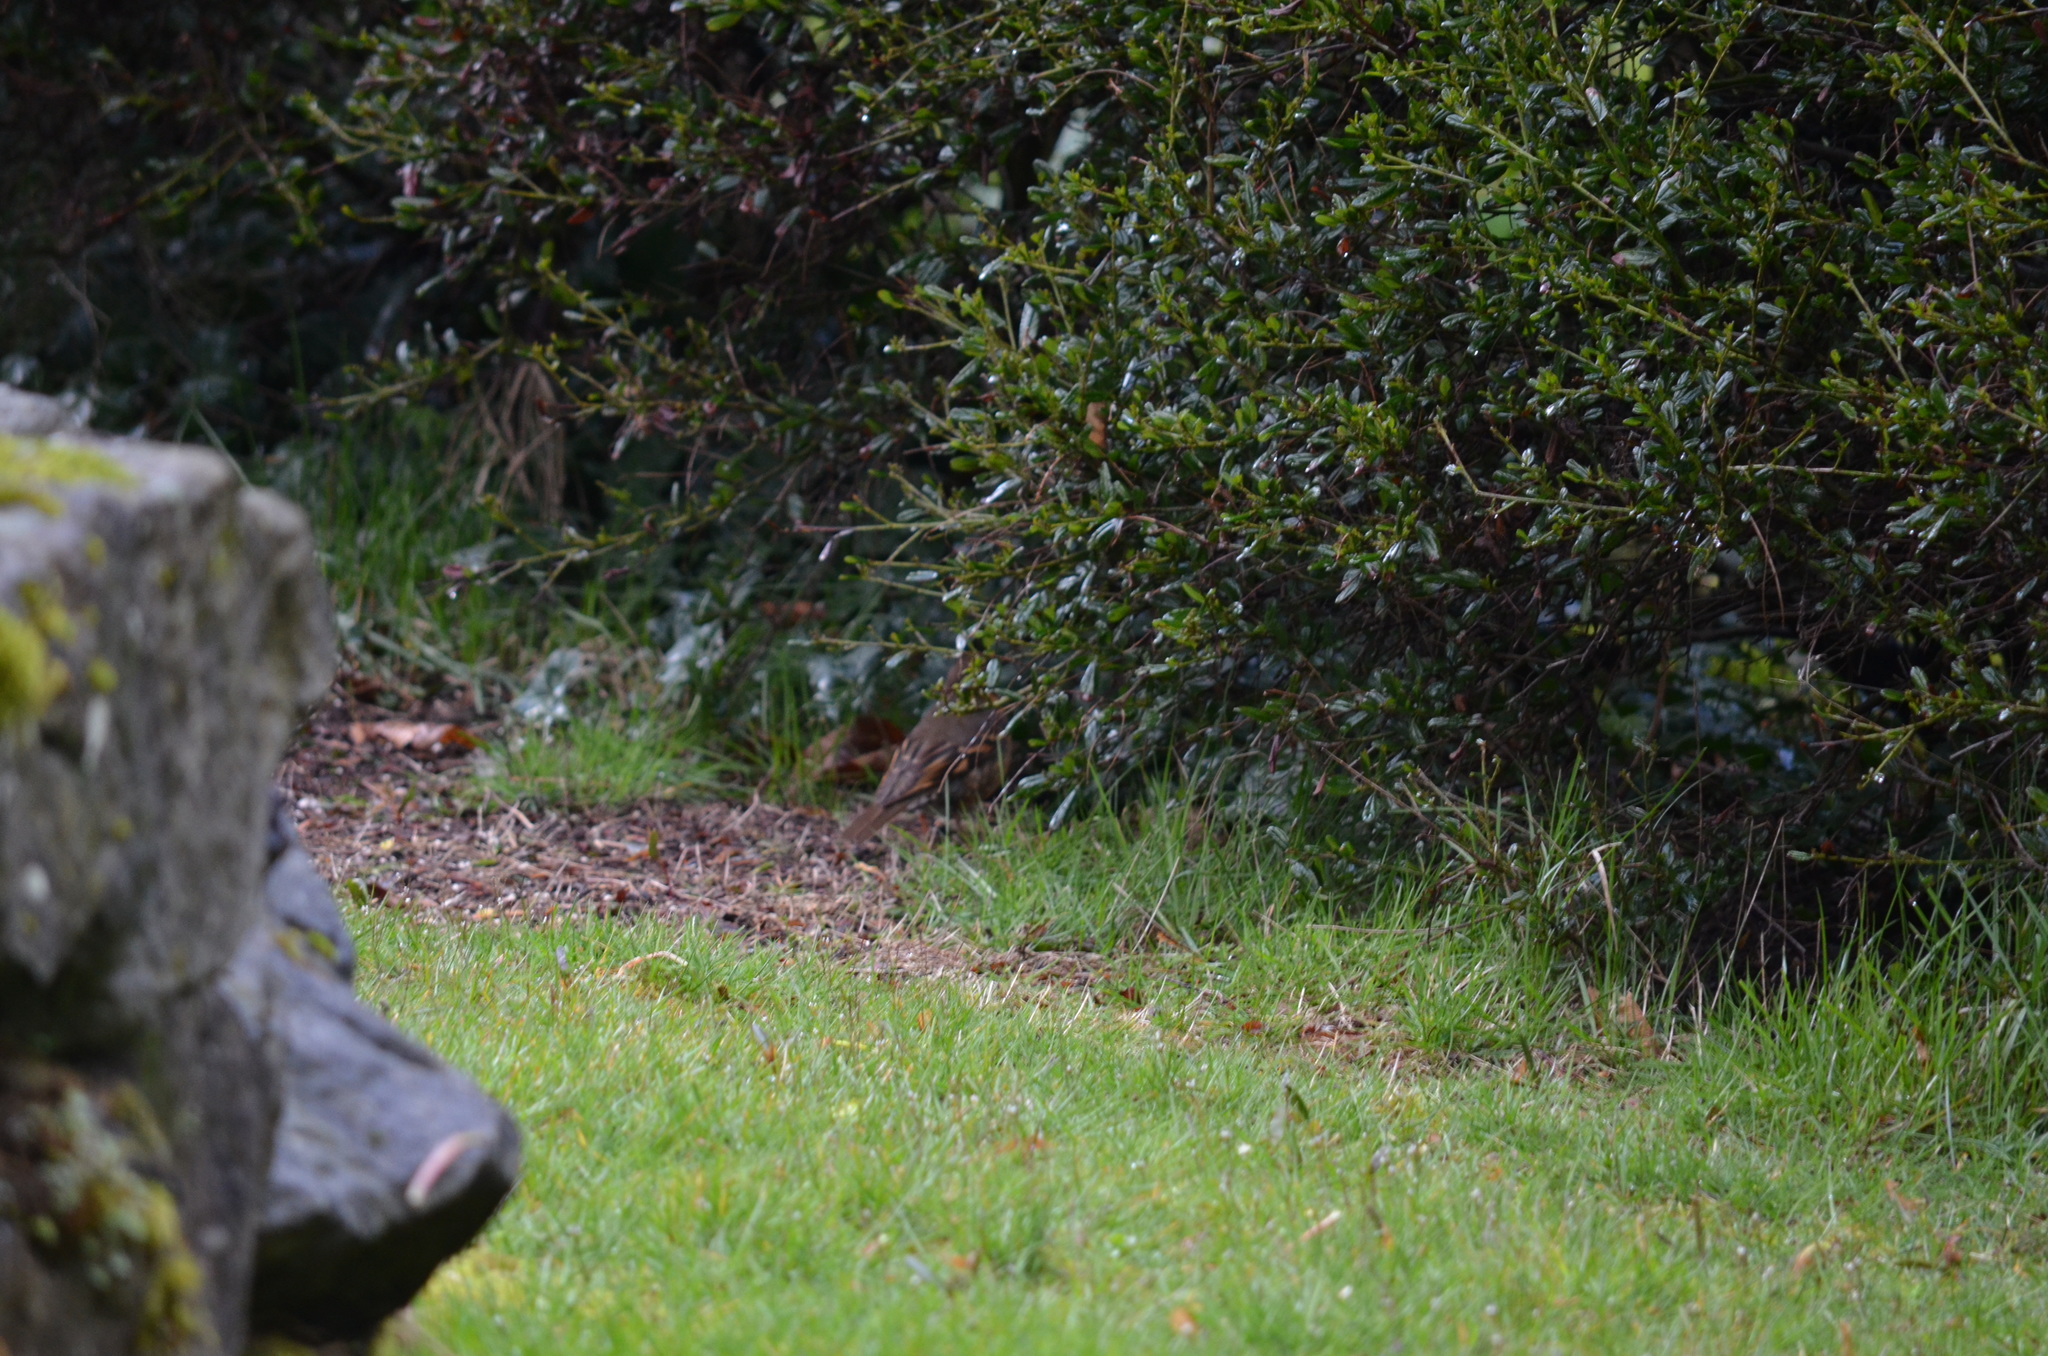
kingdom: Animalia
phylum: Chordata
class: Aves
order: Passeriformes
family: Turdidae
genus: Ixoreus
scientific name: Ixoreus naevius
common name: Varied thrush
